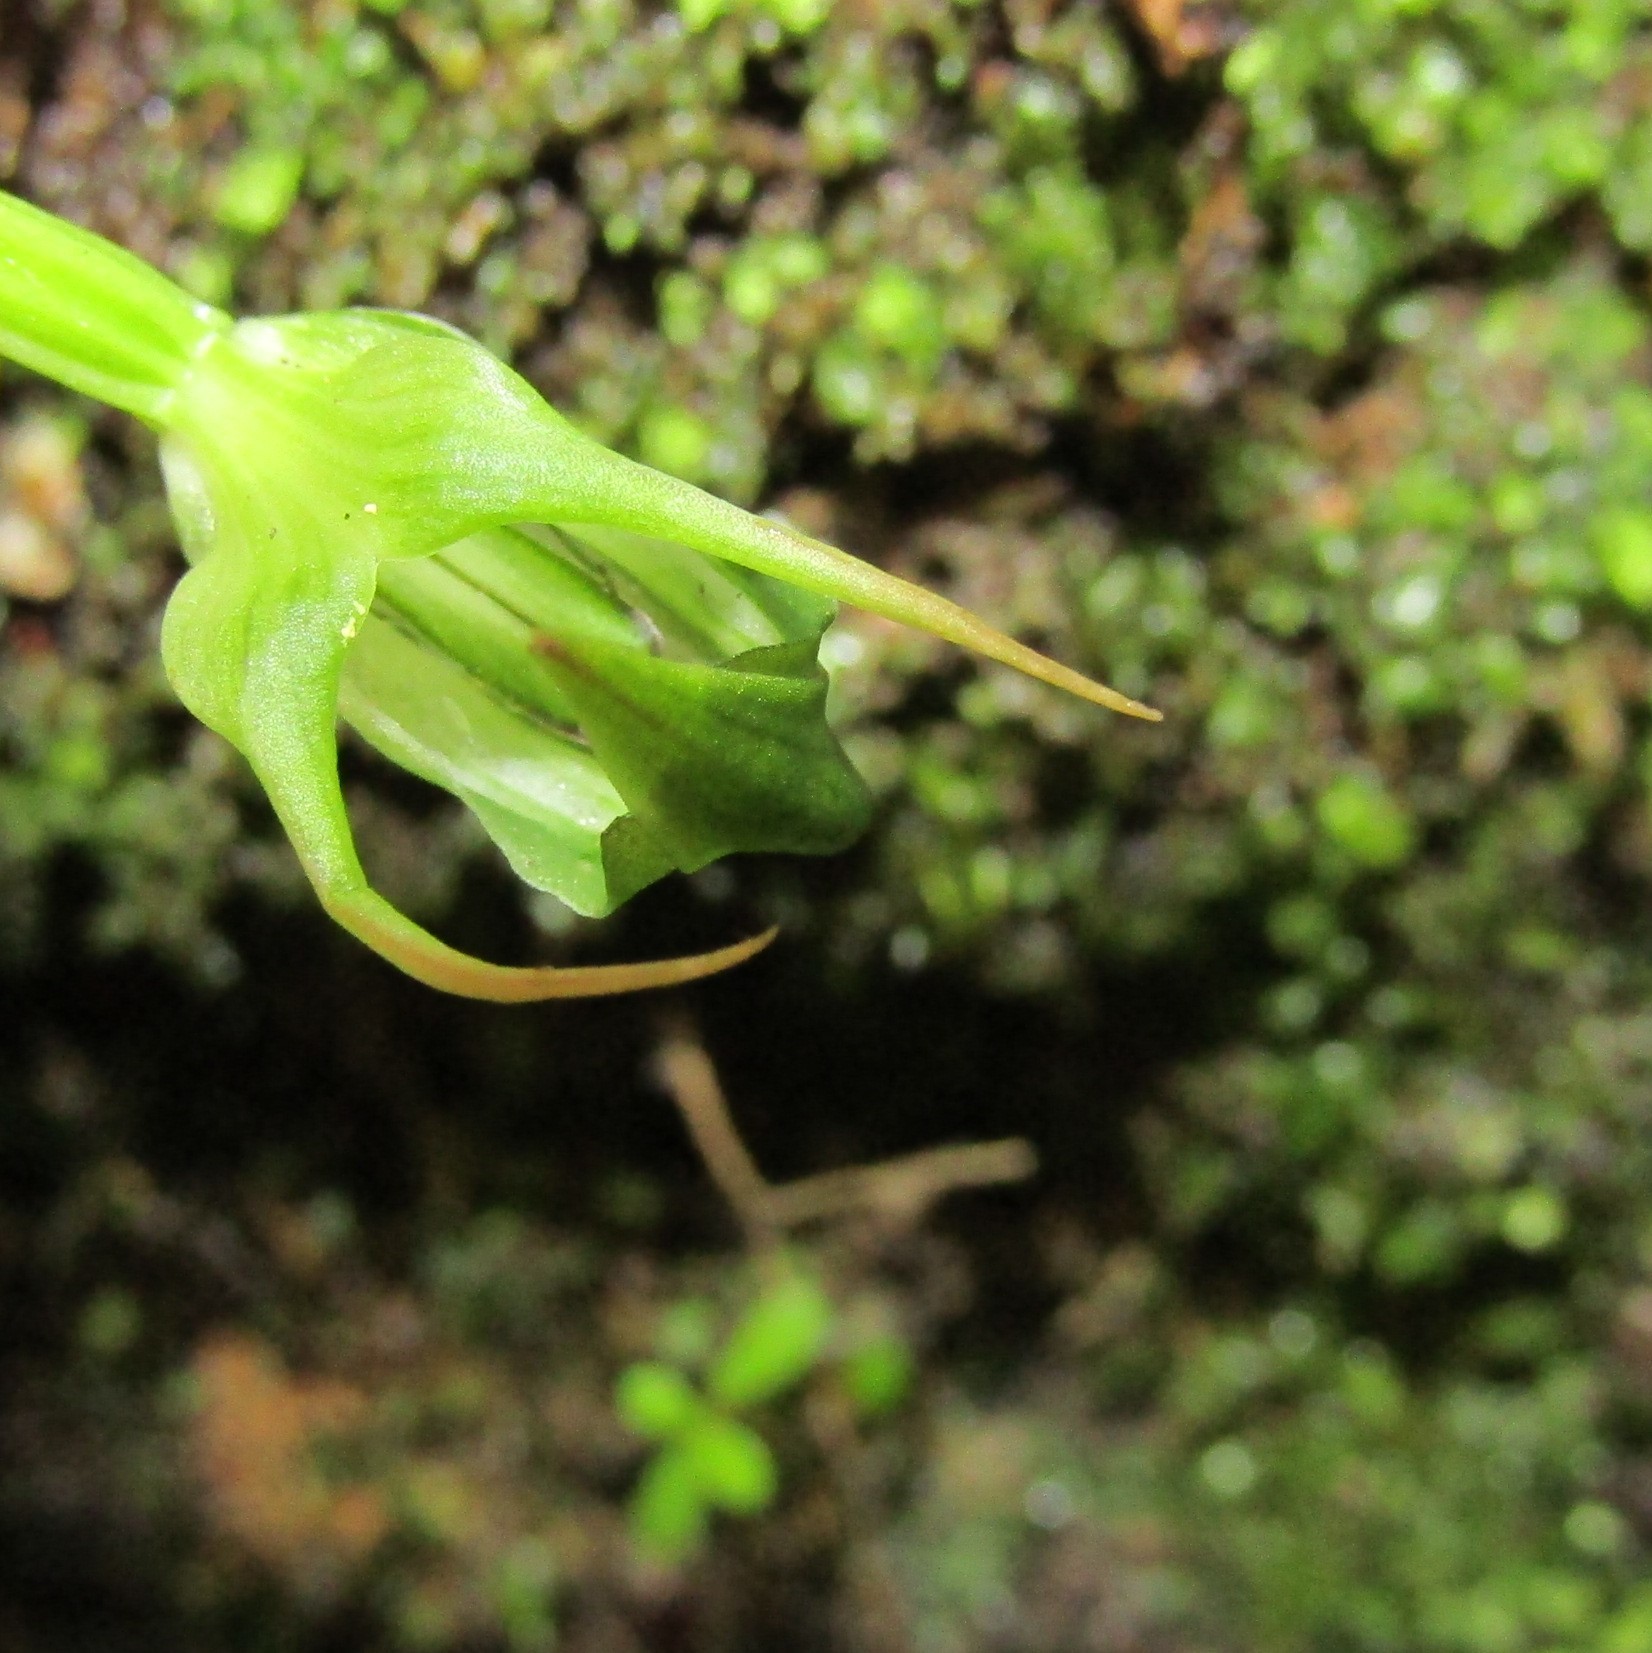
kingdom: Plantae
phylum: Tracheophyta
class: Liliopsida
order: Asparagales
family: Orchidaceae
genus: Pterostylis
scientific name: Pterostylis graminea
